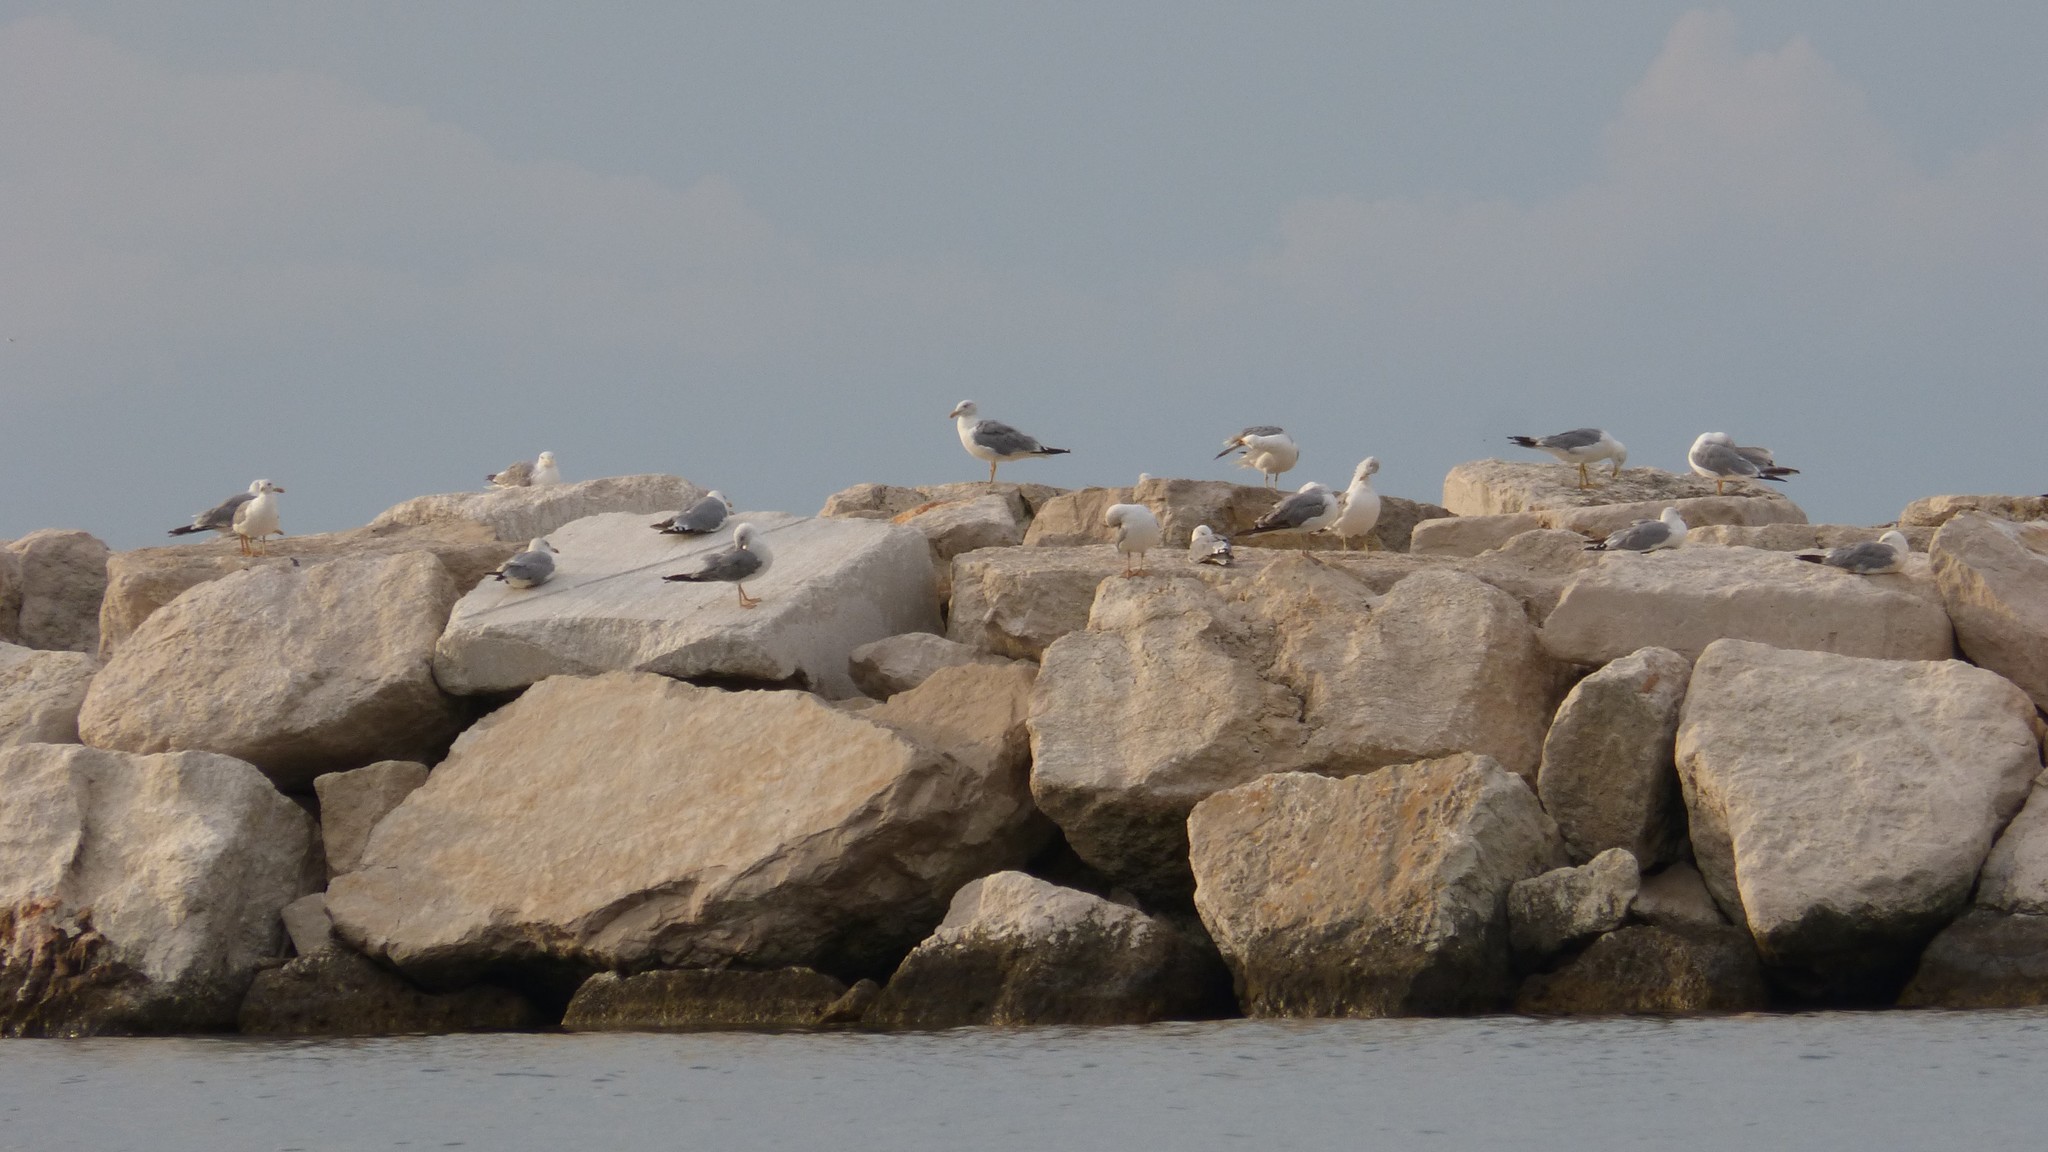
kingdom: Animalia
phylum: Chordata
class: Aves
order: Charadriiformes
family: Laridae
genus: Larus
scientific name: Larus michahellis
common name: Yellow-legged gull
